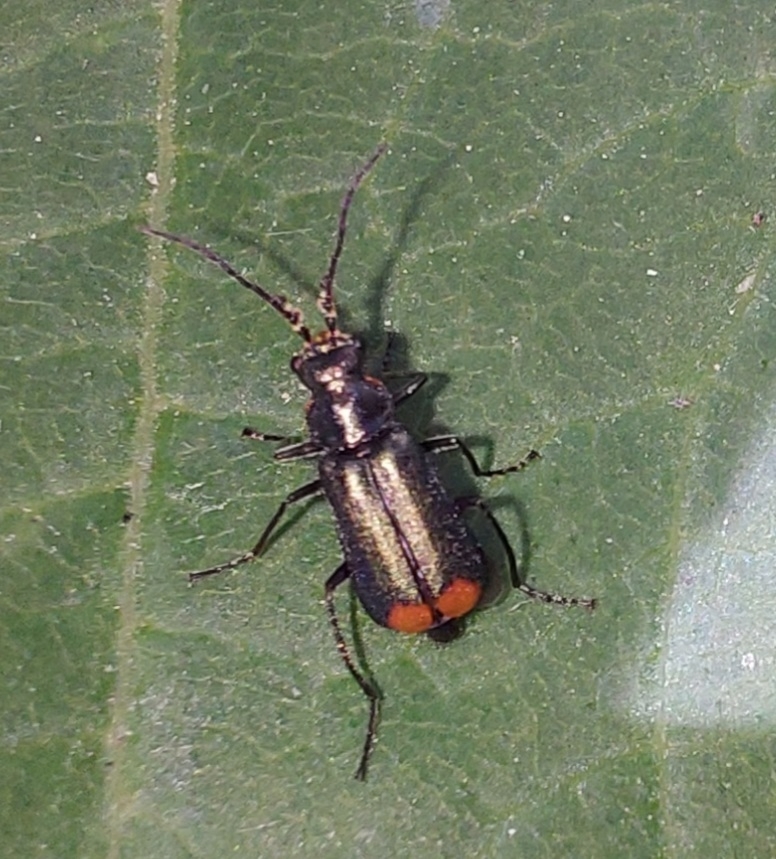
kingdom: Animalia
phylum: Arthropoda
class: Insecta
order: Coleoptera
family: Melyridae
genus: Malachius
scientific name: Malachius bipustulatus
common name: Malachite beetle
